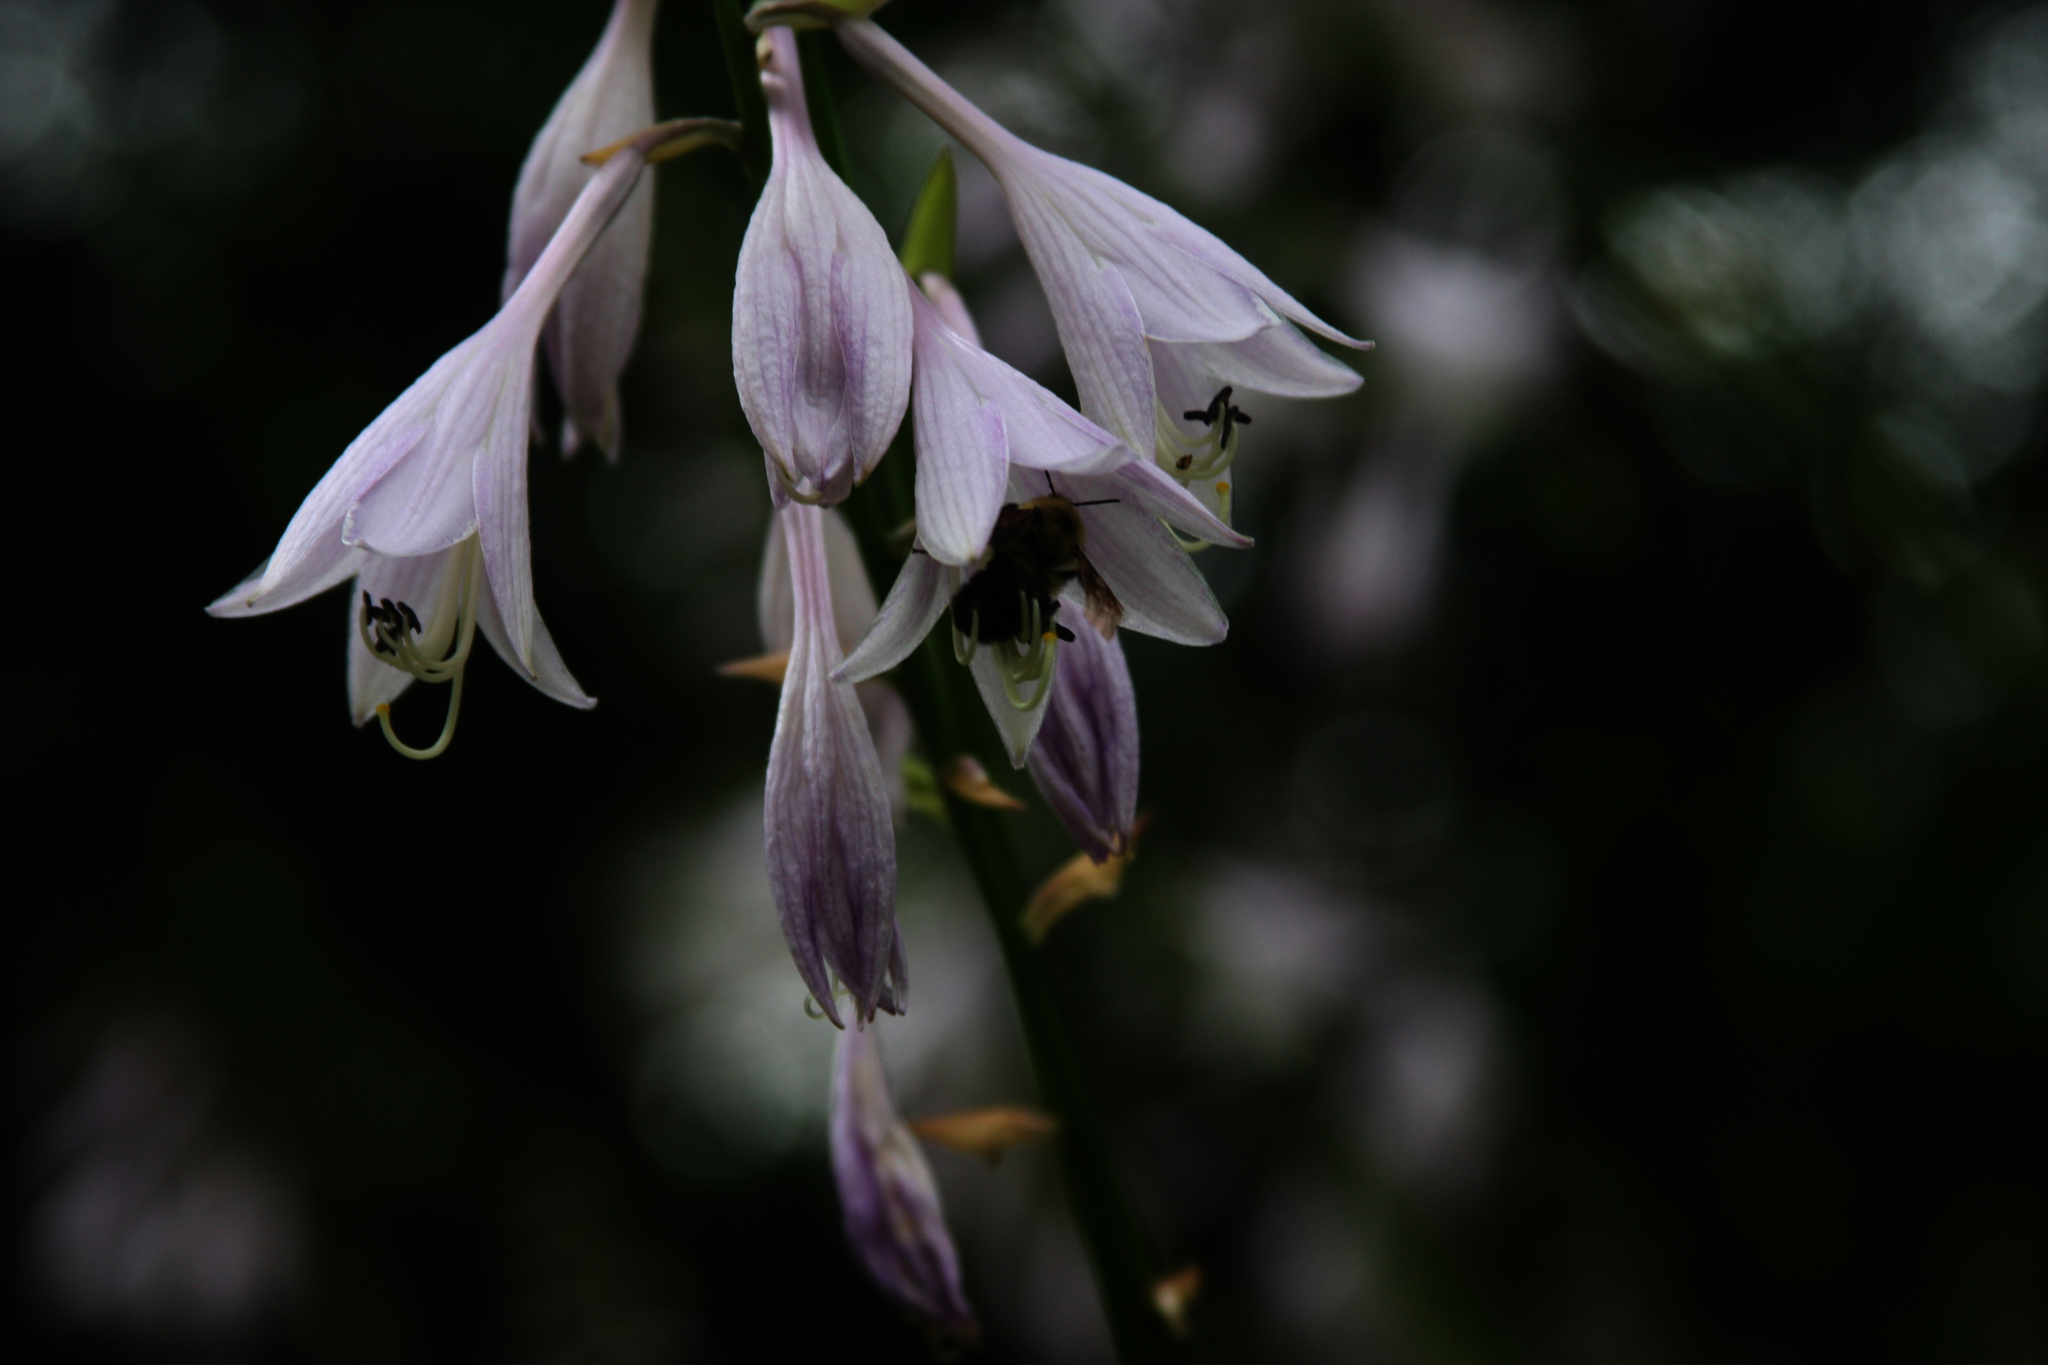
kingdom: Animalia
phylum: Arthropoda
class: Insecta
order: Hymenoptera
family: Apidae
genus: Bombus
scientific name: Bombus bimaculatus
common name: Two-spotted bumble bee
